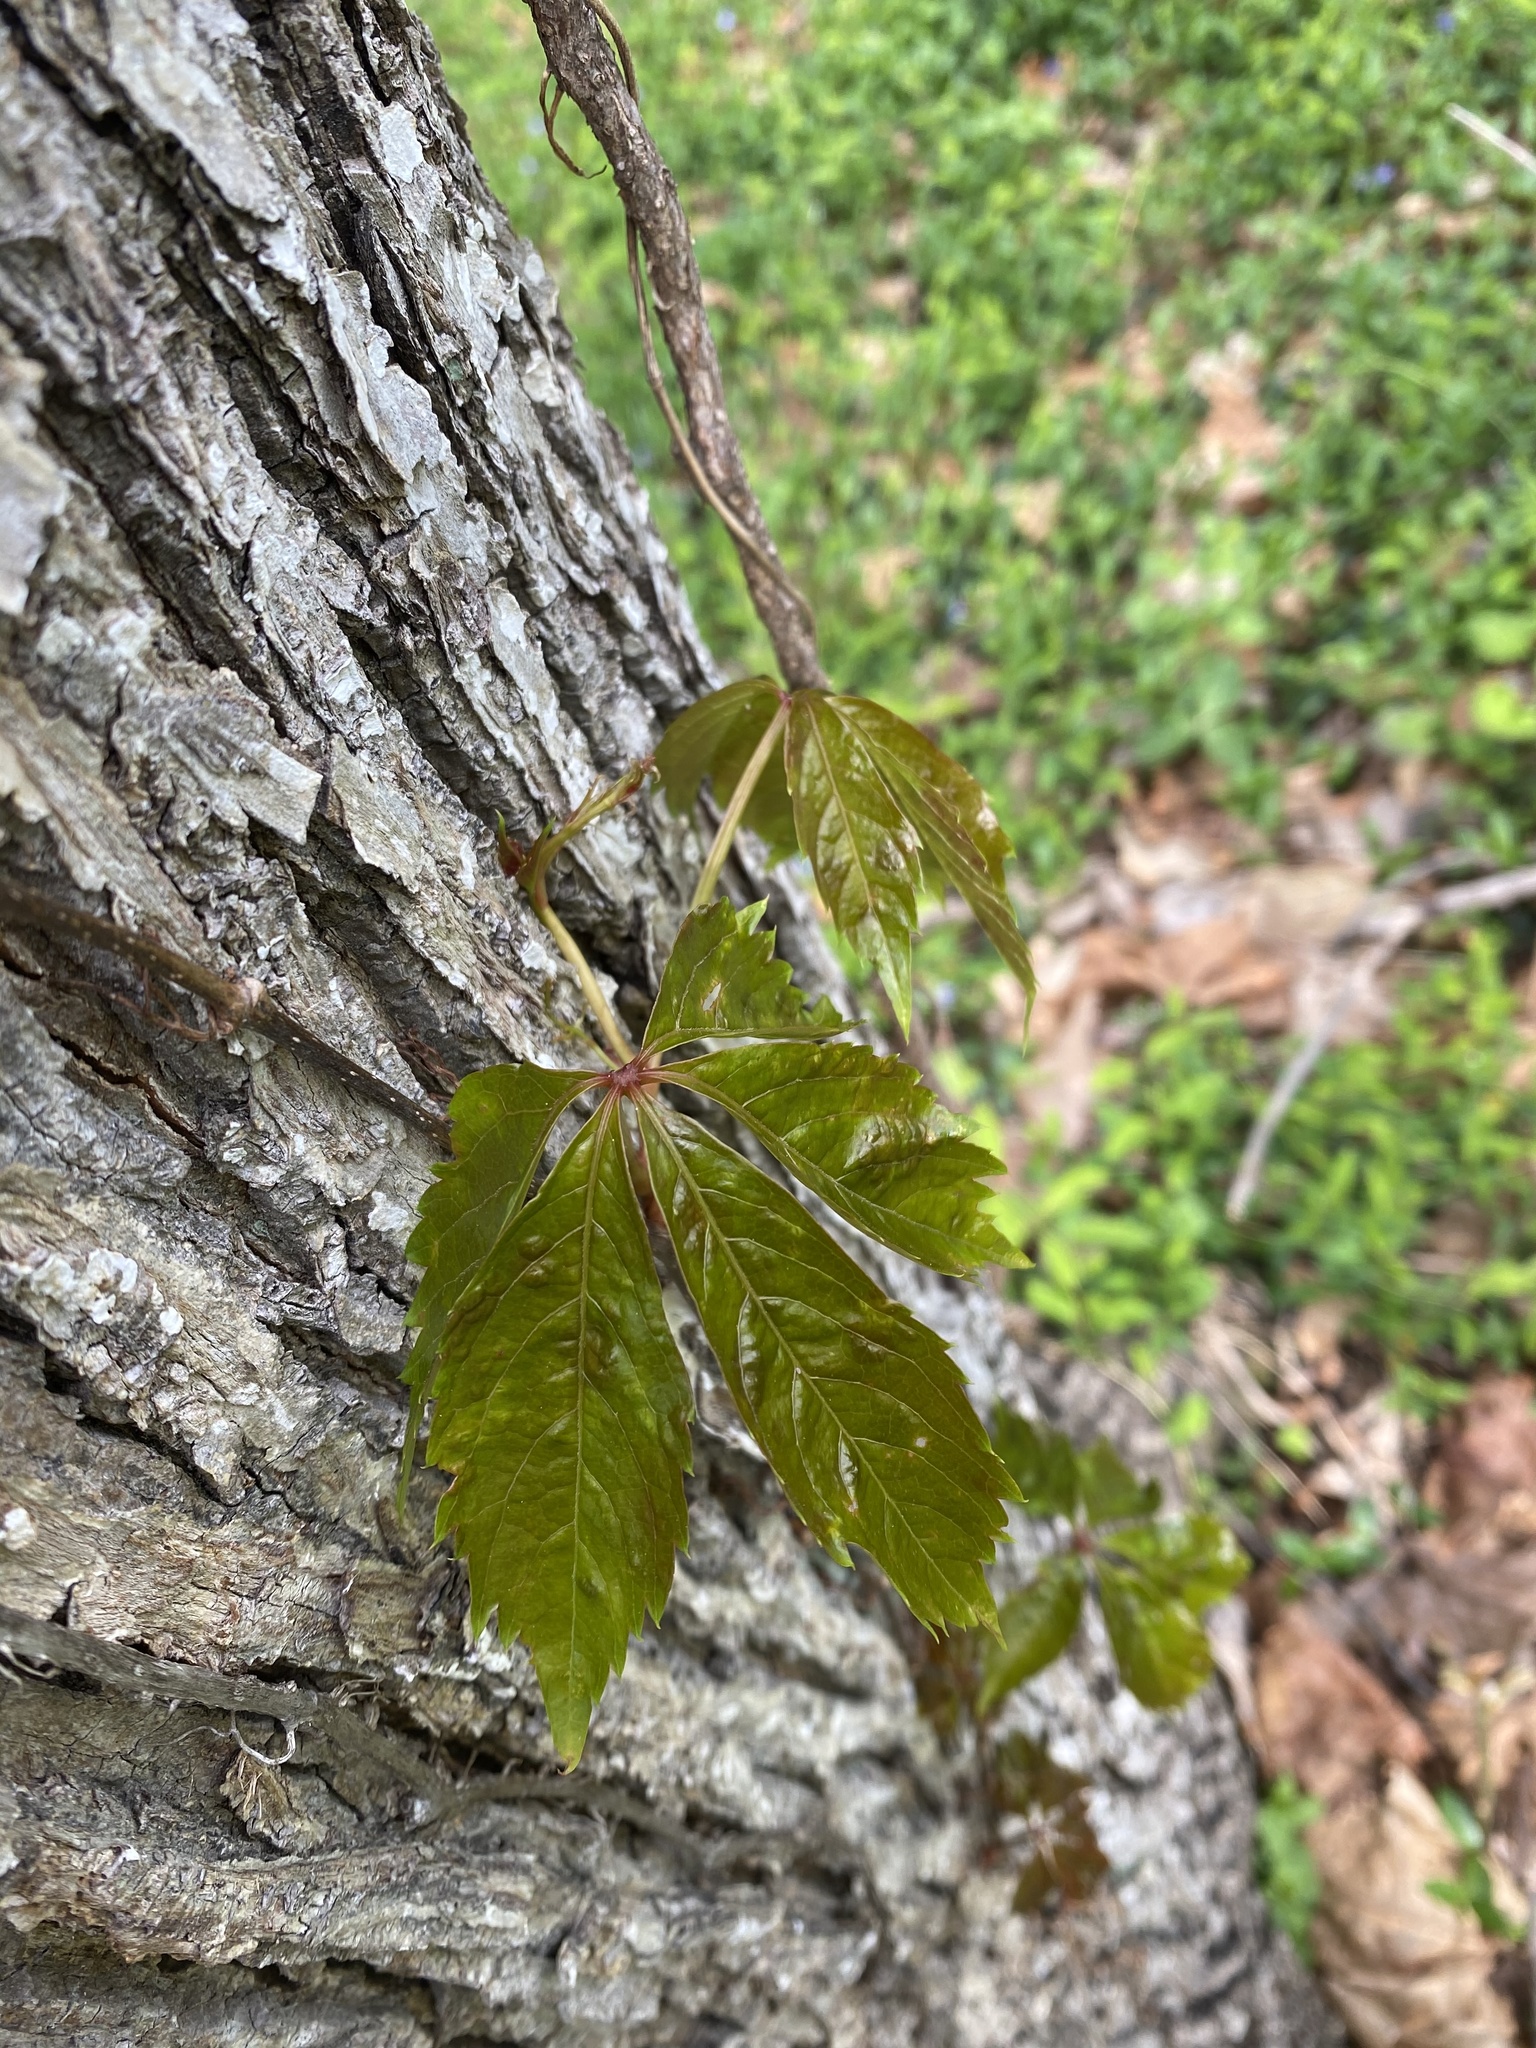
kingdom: Plantae
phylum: Tracheophyta
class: Magnoliopsida
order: Vitales
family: Vitaceae
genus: Parthenocissus
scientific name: Parthenocissus quinquefolia
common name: Virginia-creeper
